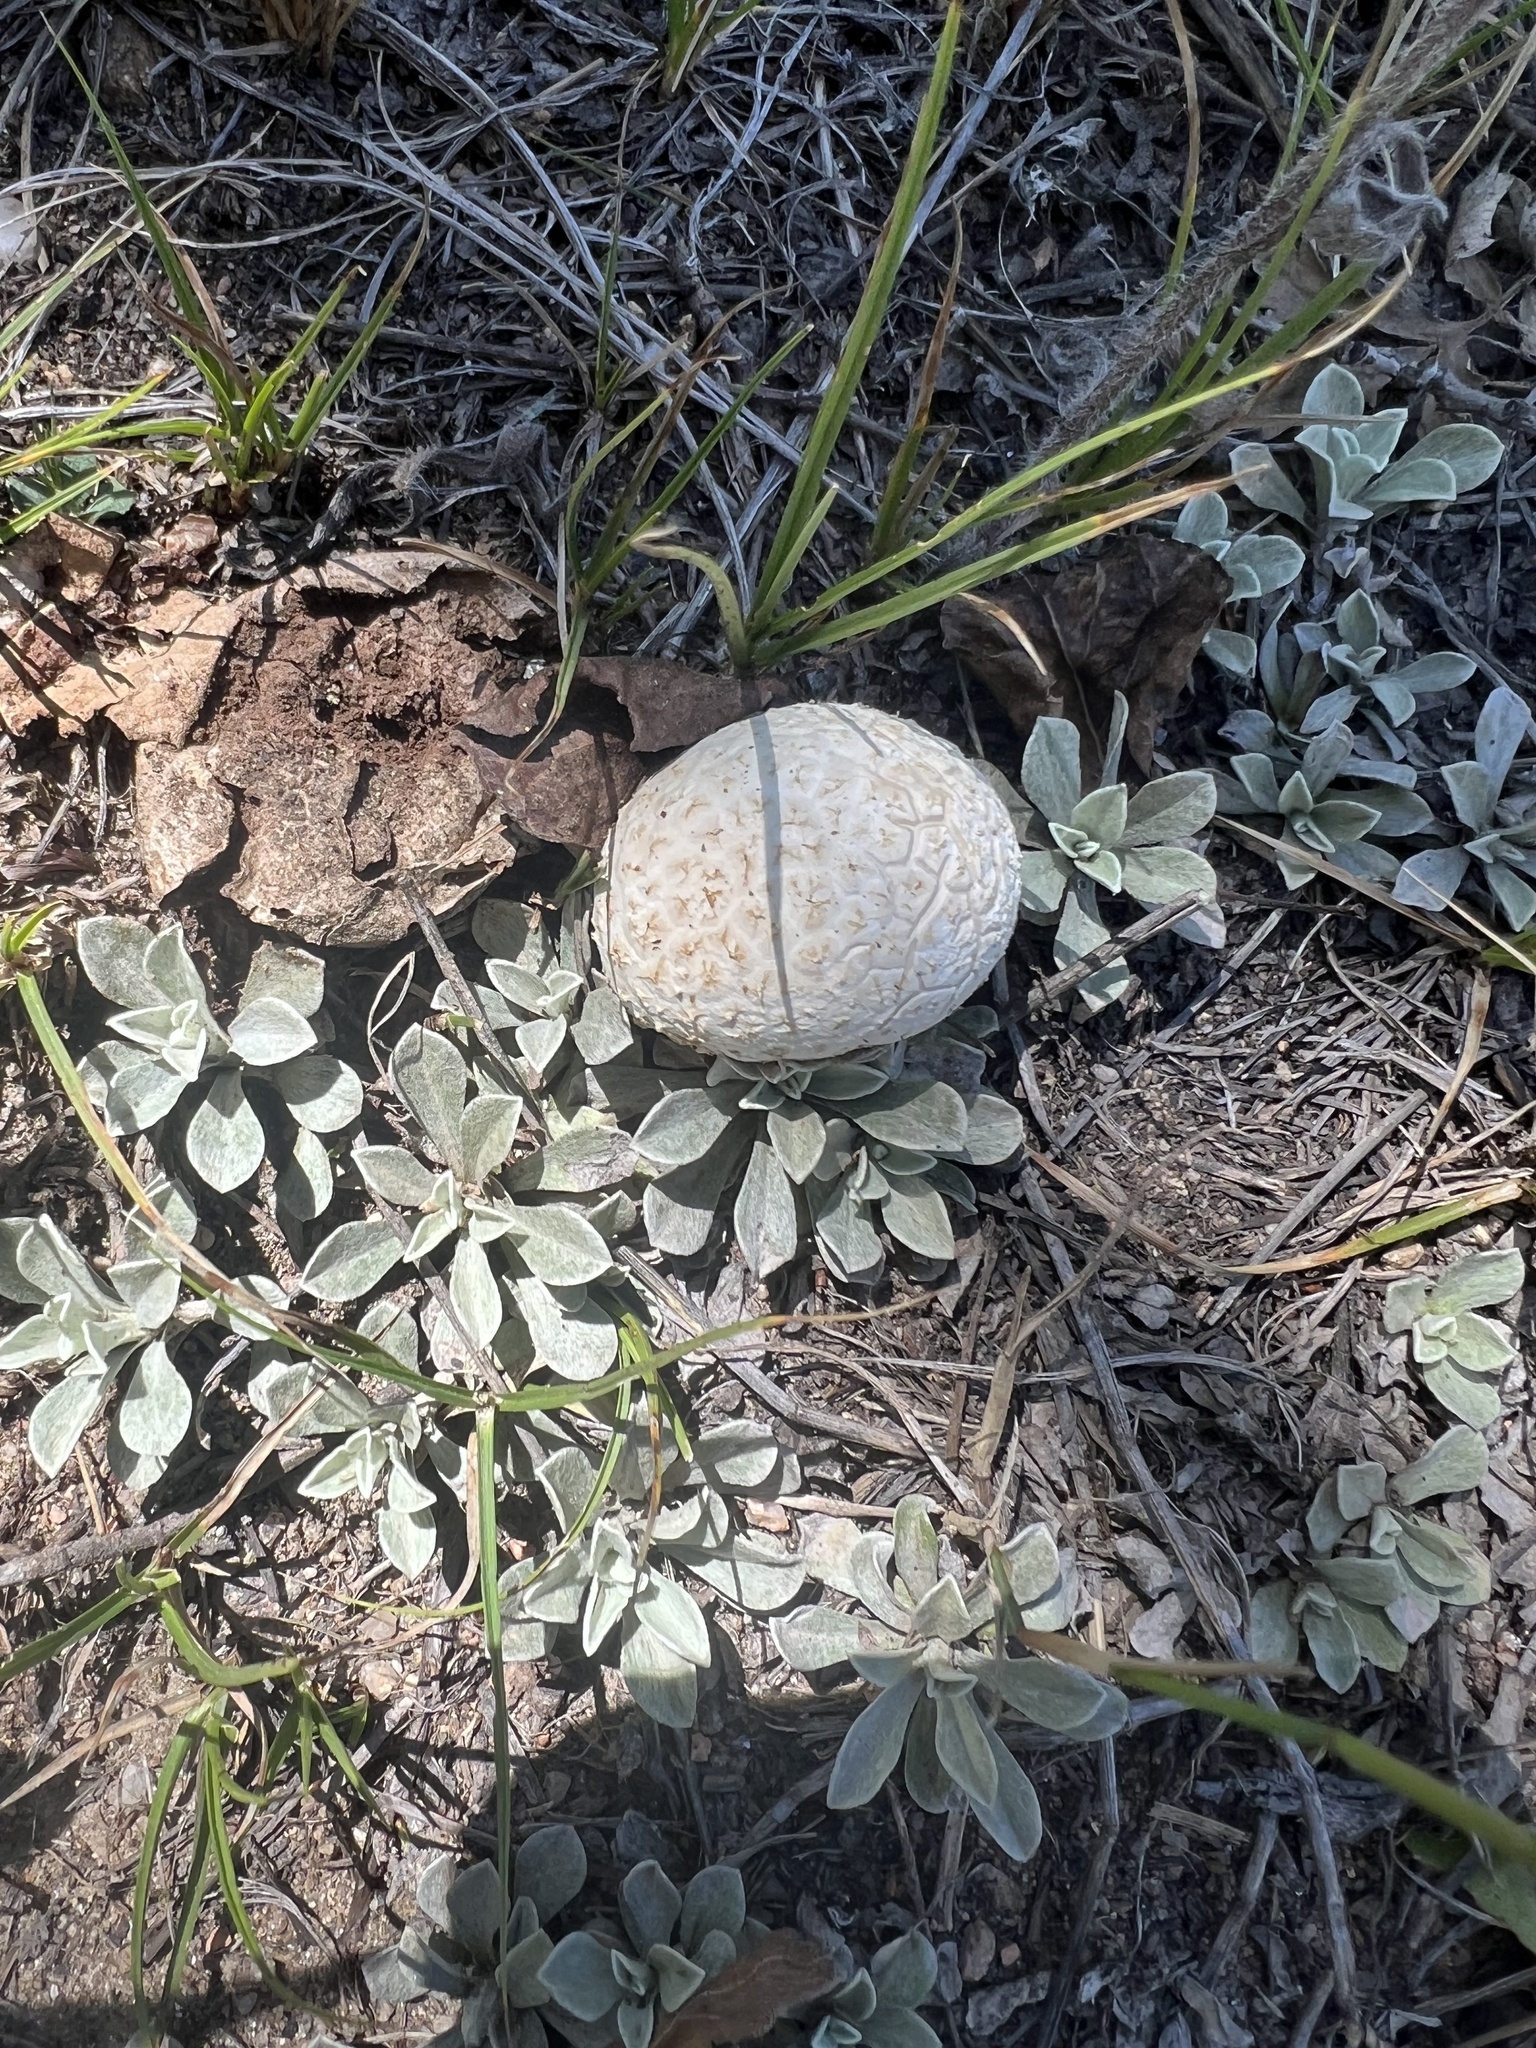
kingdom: Fungi
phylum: Basidiomycota
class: Agaricomycetes
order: Agaricales
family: Lycoperdaceae
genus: Calvatia
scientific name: Calvatia booniana
